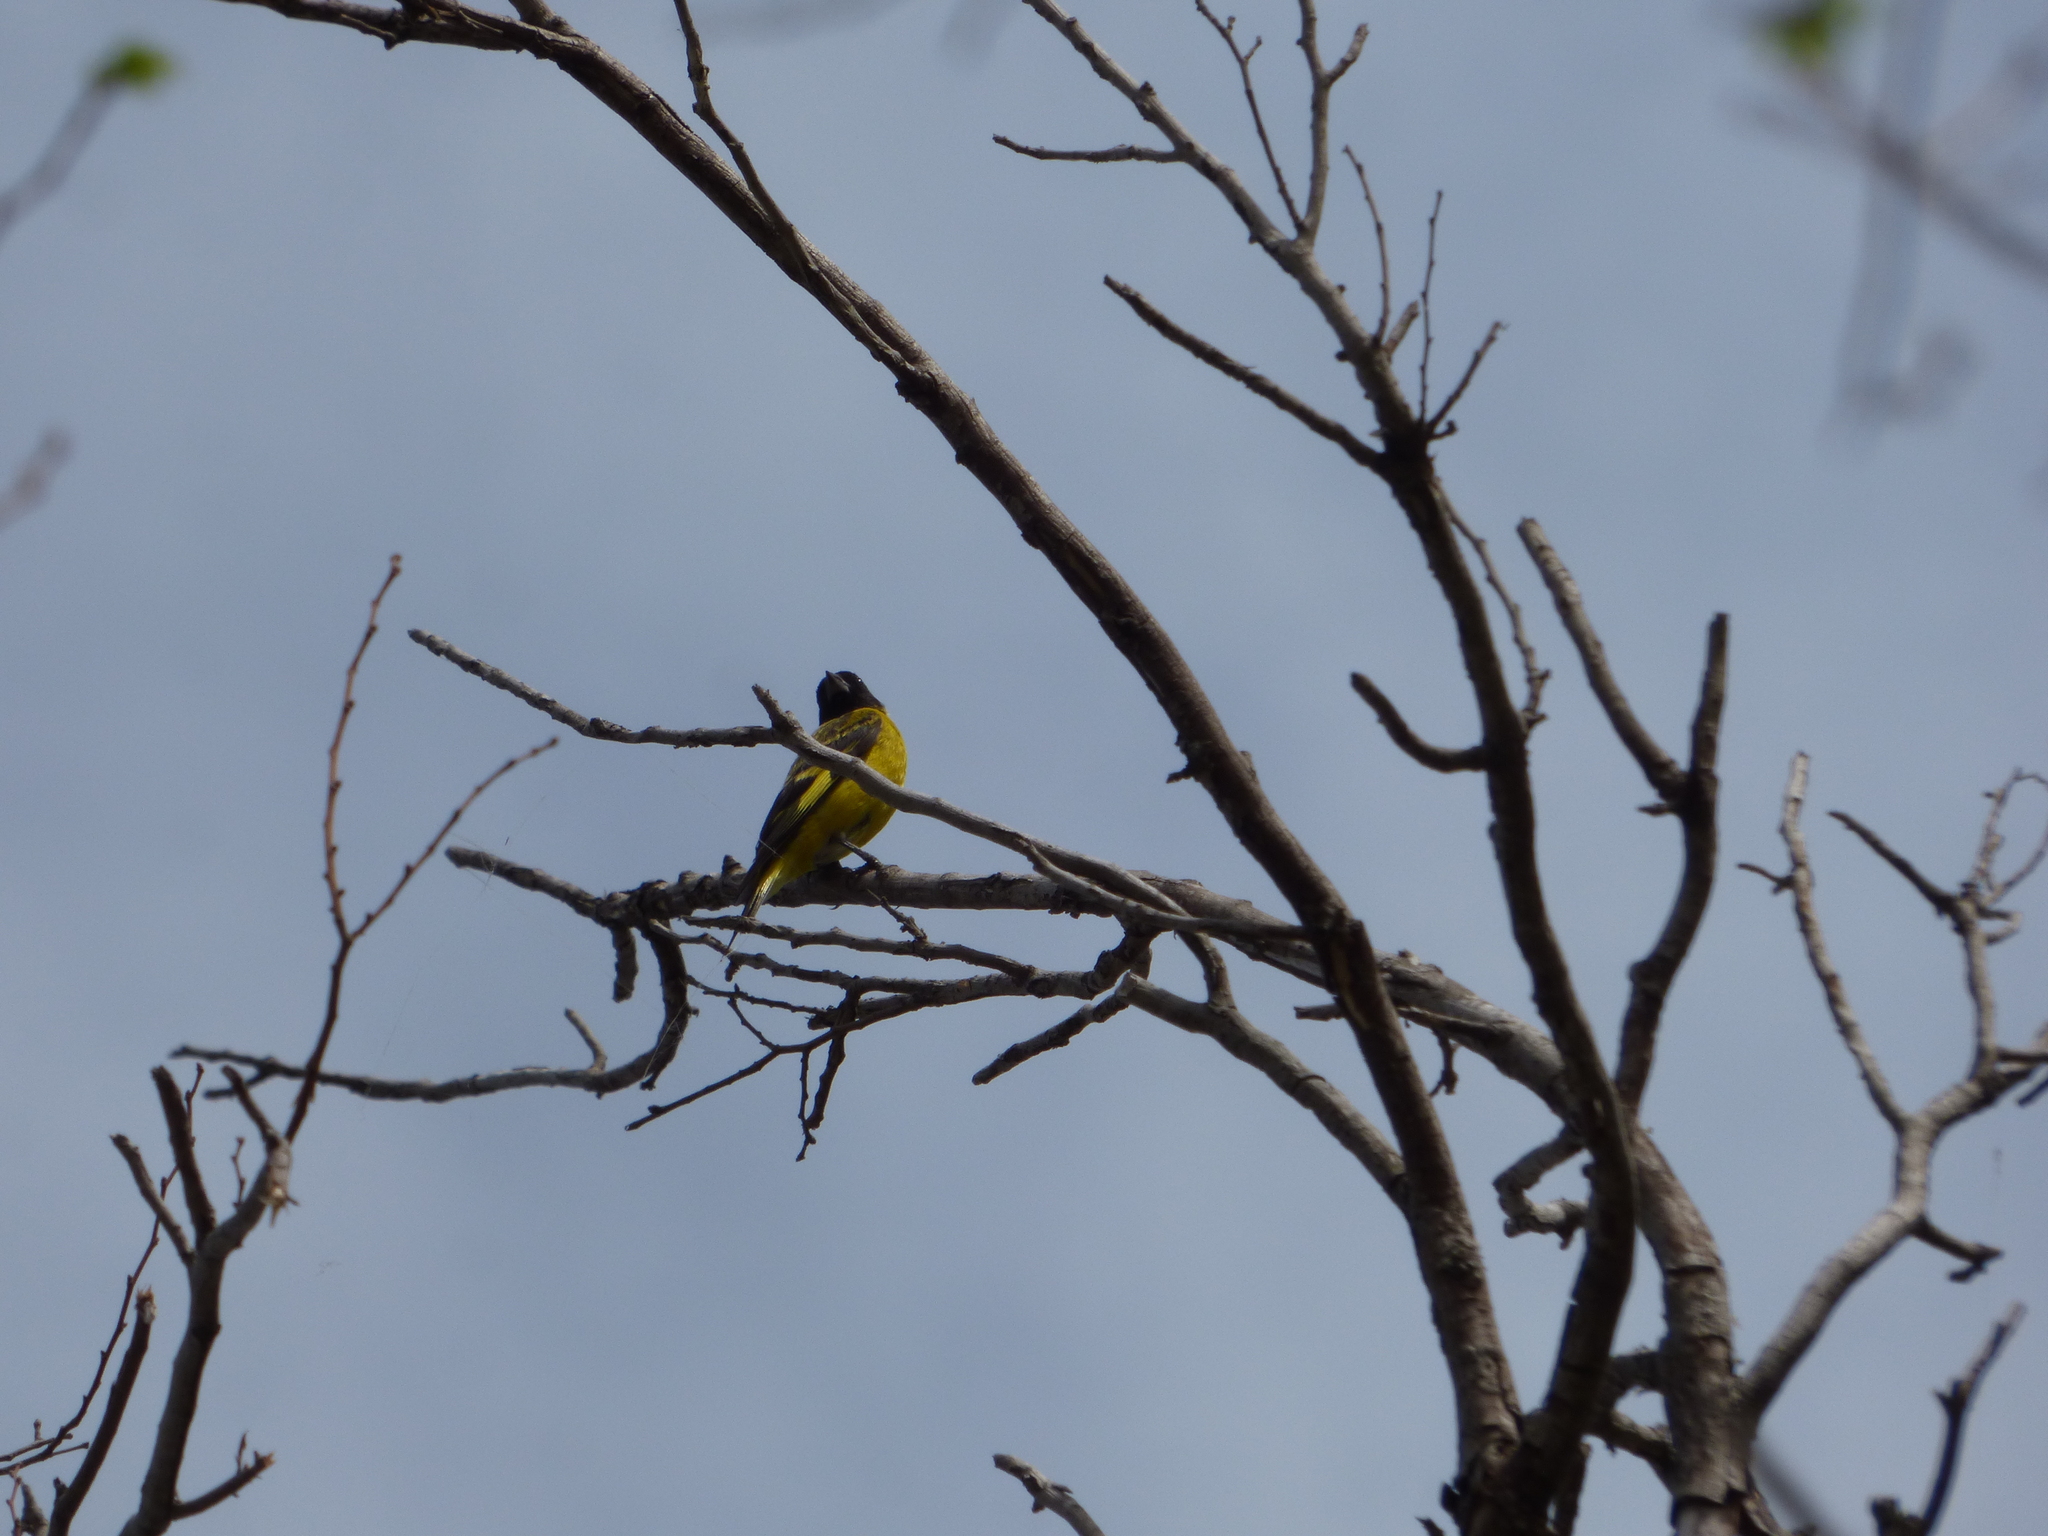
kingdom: Animalia
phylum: Chordata
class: Aves
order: Passeriformes
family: Fringillidae
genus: Spinus
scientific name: Spinus magellanicus
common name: Hooded siskin
